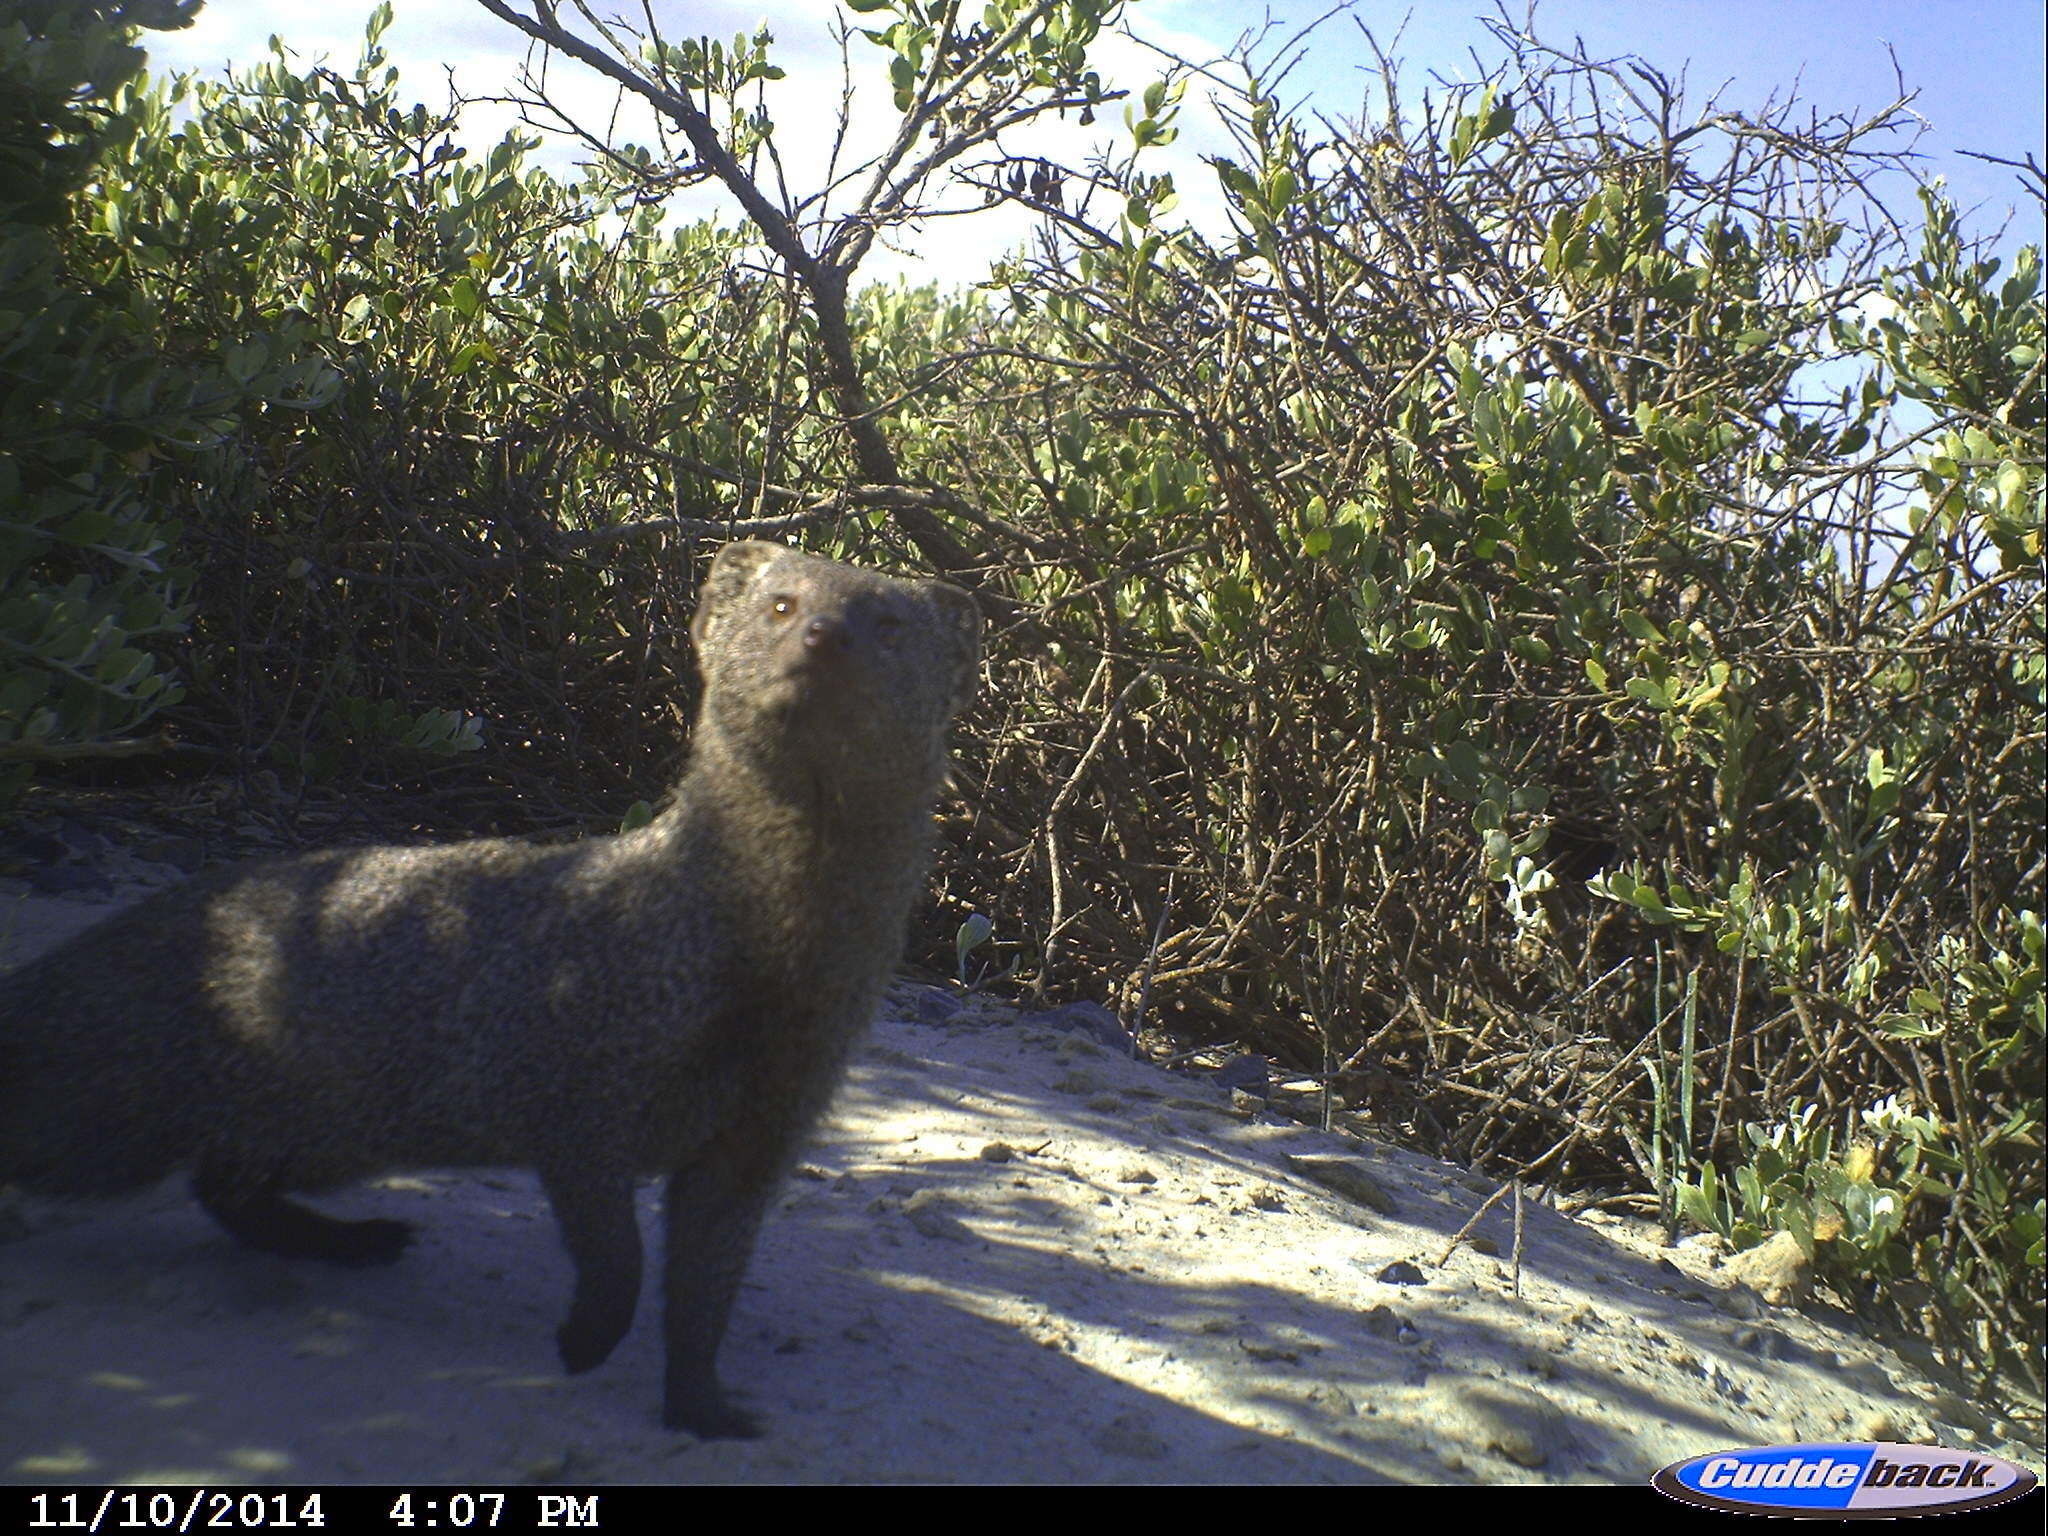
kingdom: Animalia
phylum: Chordata
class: Mammalia
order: Carnivora
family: Herpestidae
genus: Galerella
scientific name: Galerella pulverulenta
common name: Cape gray mongoose
